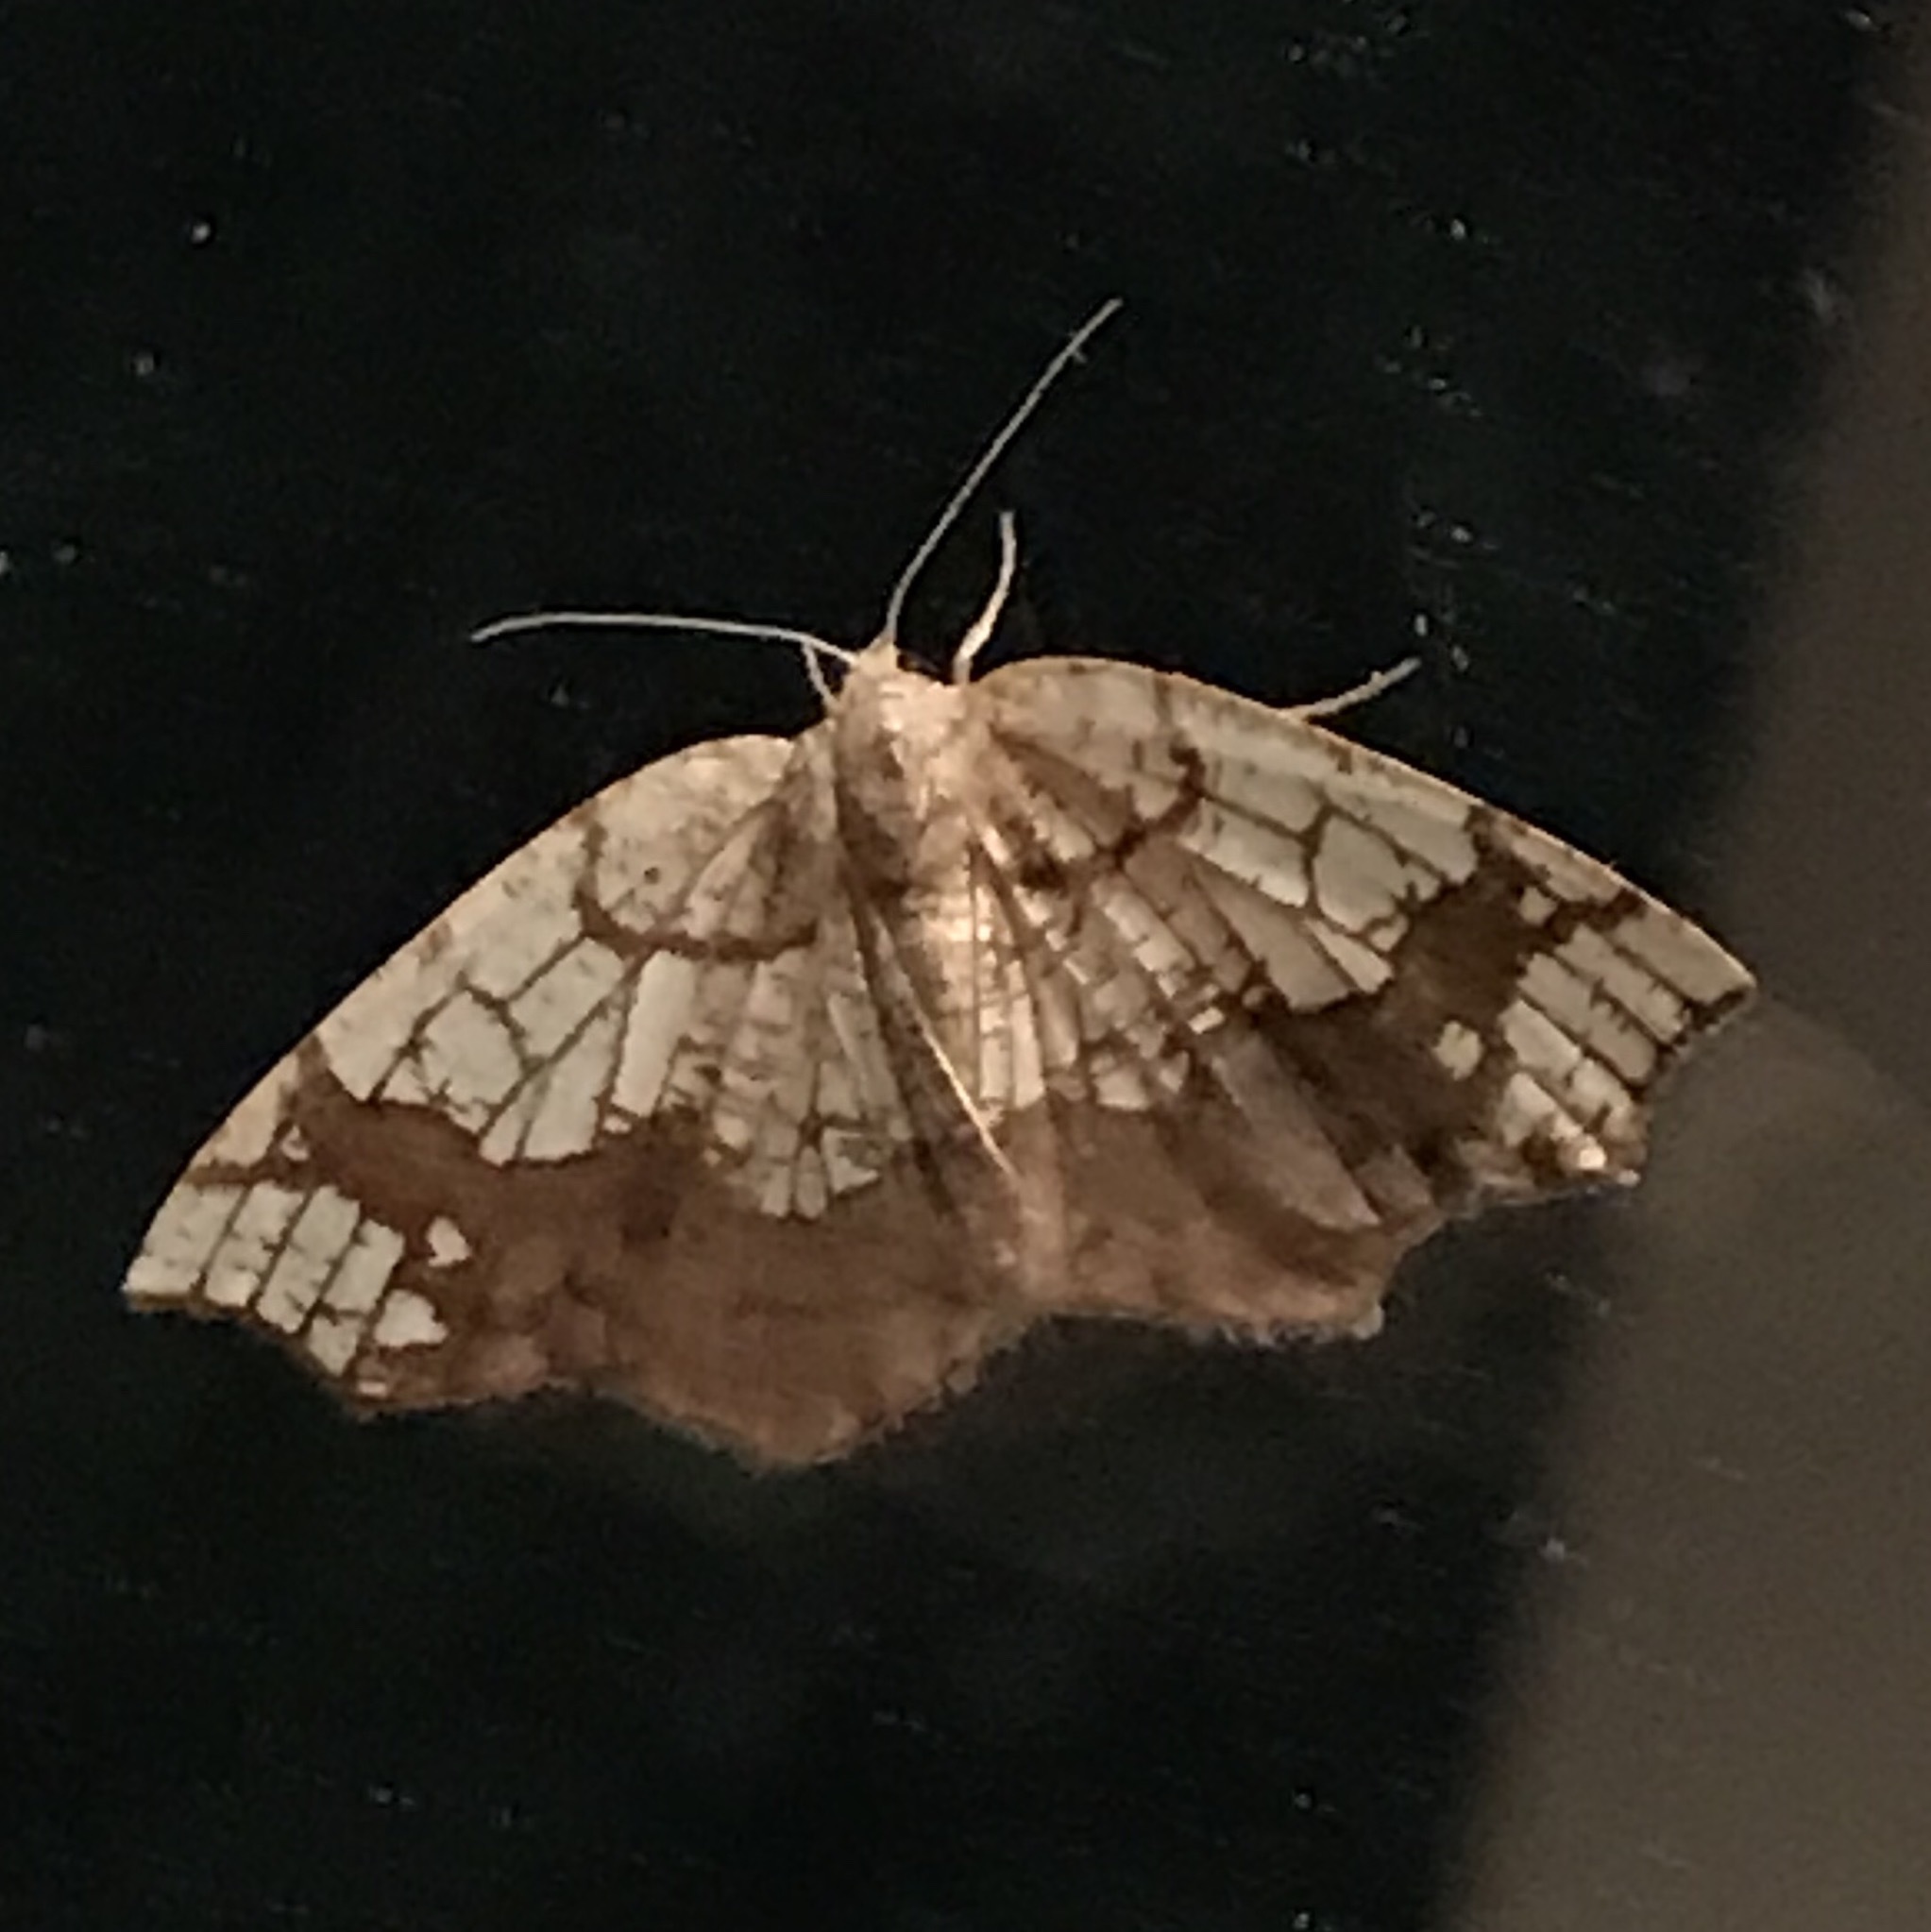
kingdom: Animalia
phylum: Arthropoda
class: Insecta
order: Lepidoptera
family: Geometridae
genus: Nematocampa
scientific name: Nematocampa resistaria
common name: Horned spanworm moth
